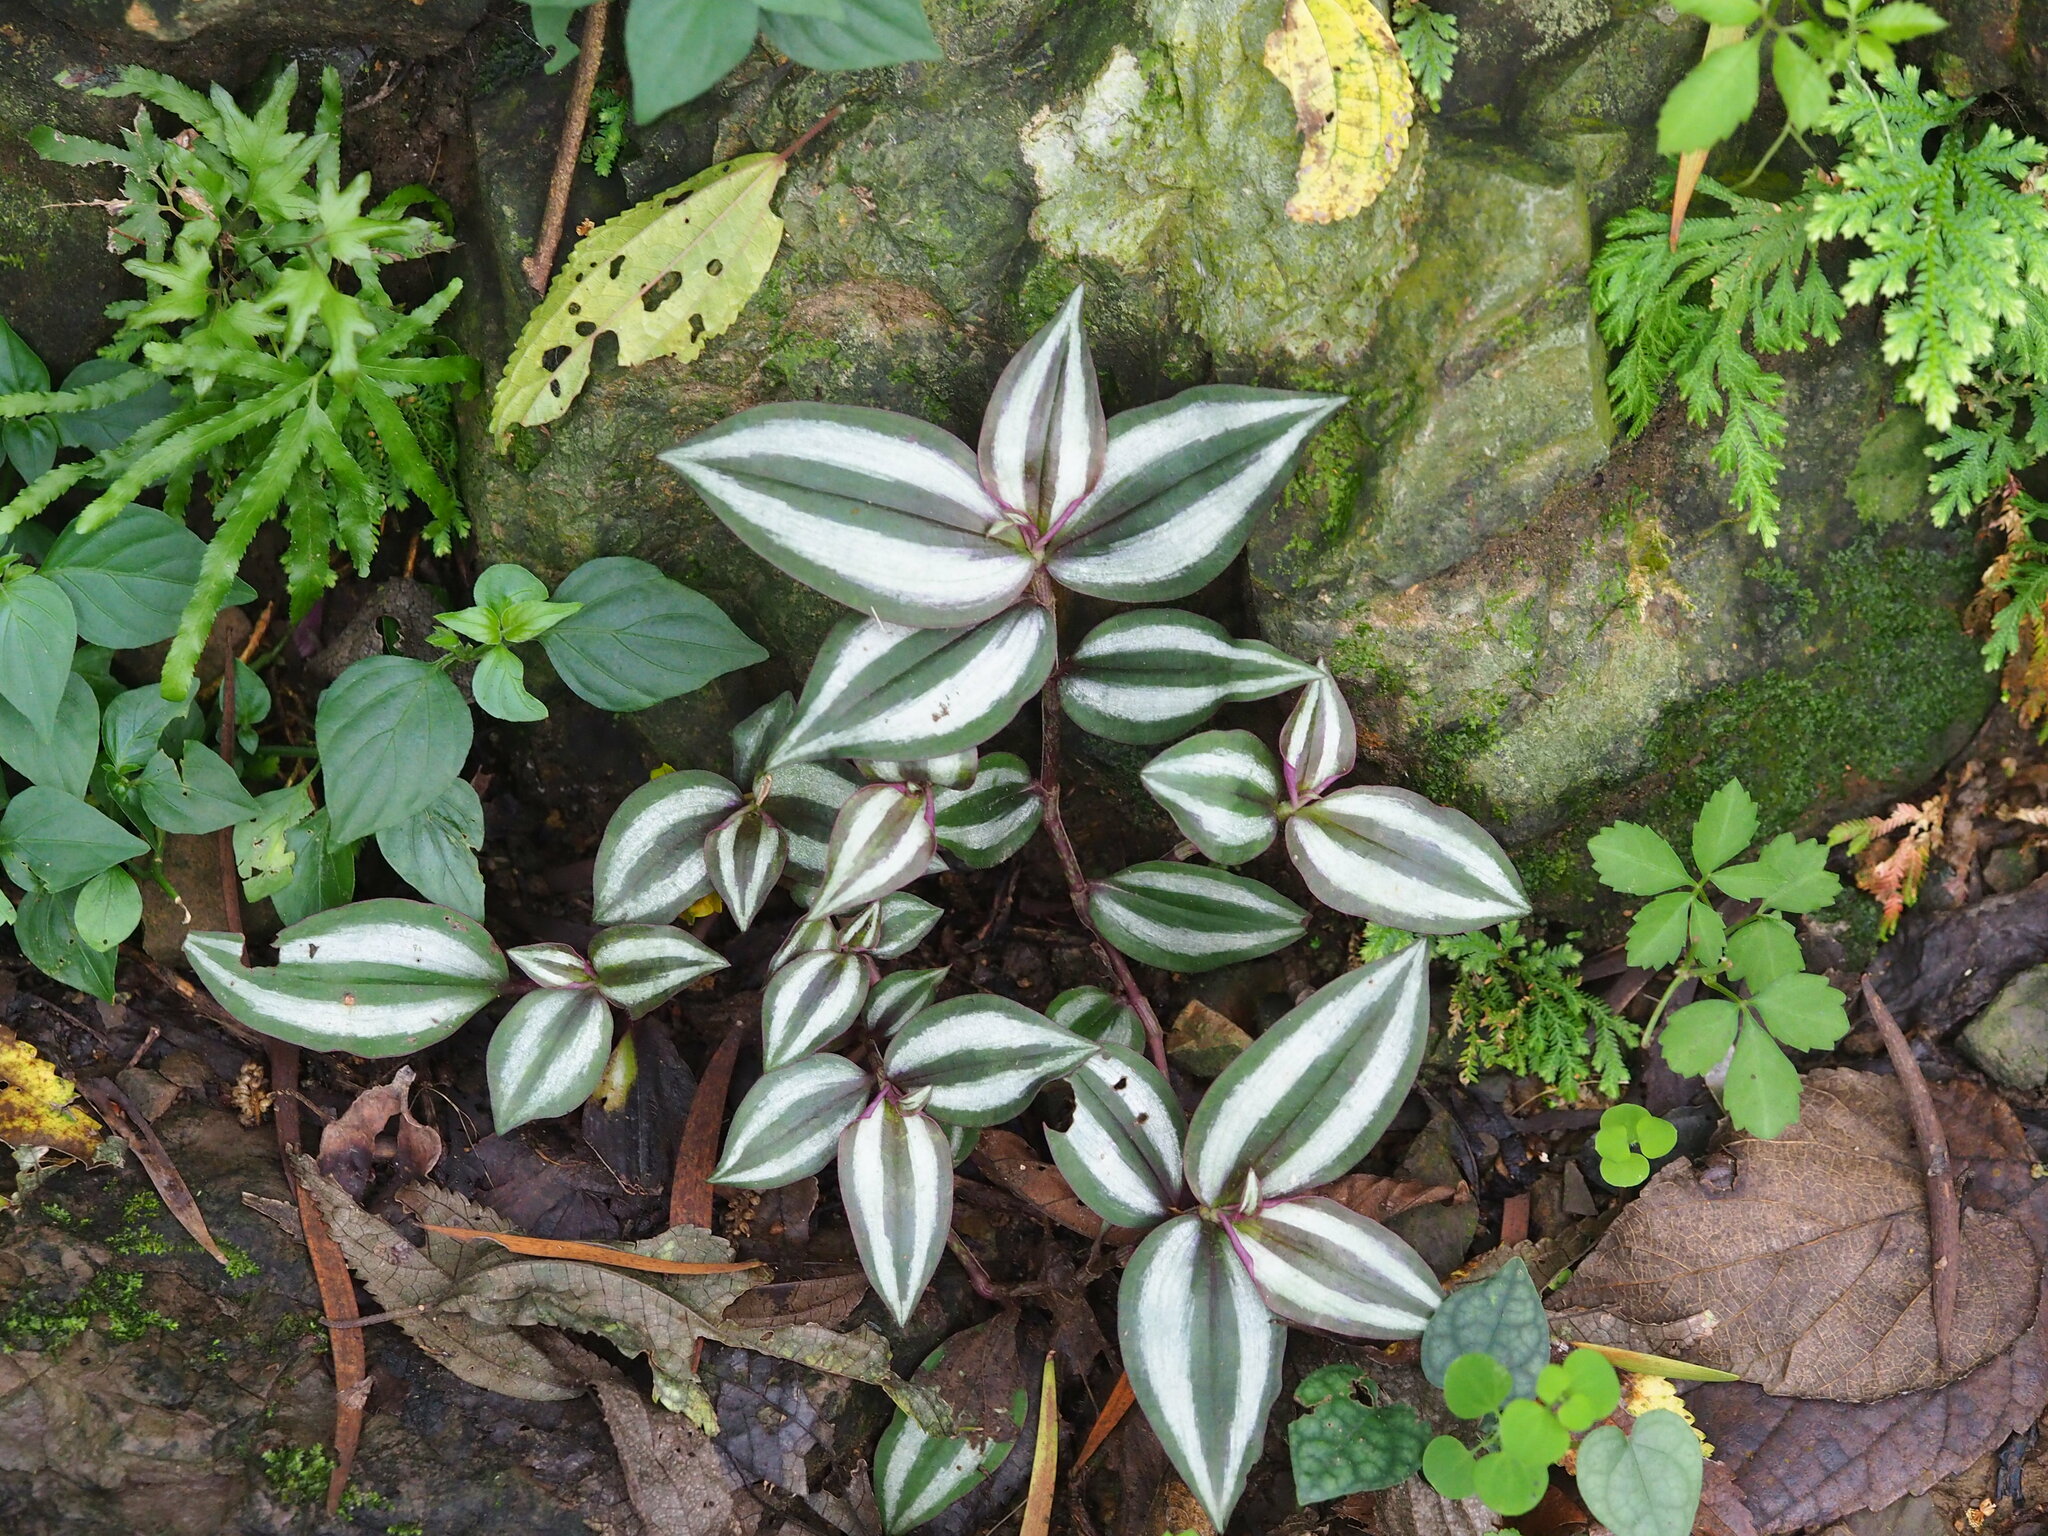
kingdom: Plantae
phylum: Tracheophyta
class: Liliopsida
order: Commelinales
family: Commelinaceae
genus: Tradescantia
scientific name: Tradescantia zebrina
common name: Inchplant
